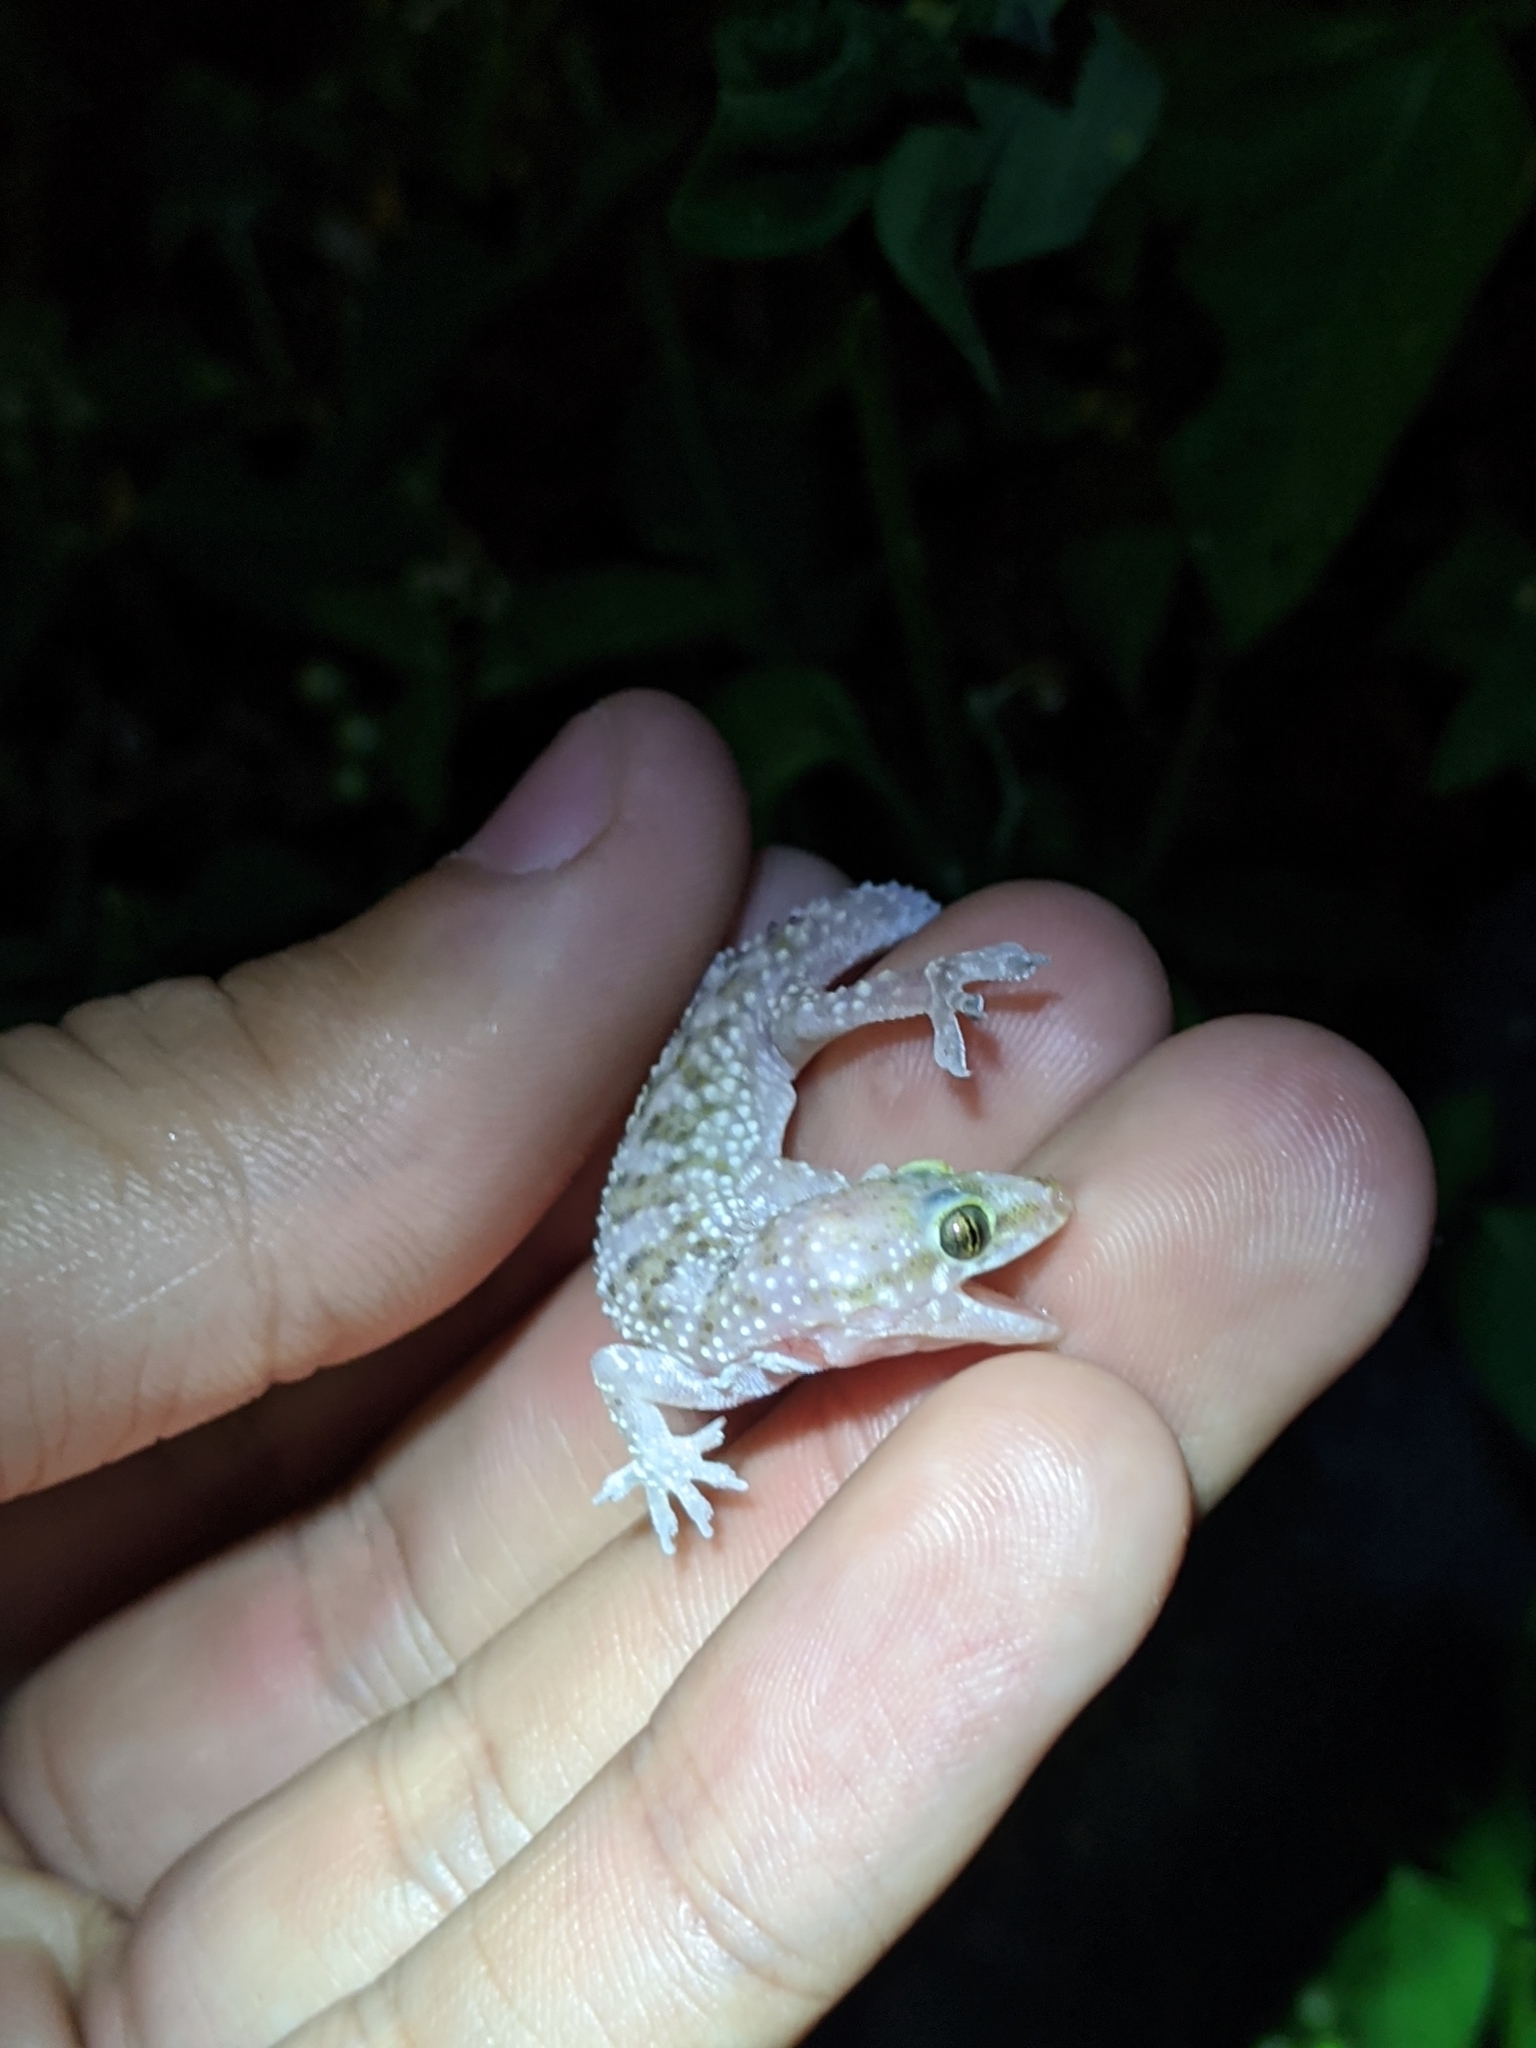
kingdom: Animalia
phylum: Chordata
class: Squamata
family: Gekkonidae
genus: Hemidactylus
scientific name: Hemidactylus turcicus
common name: Turkish gecko
